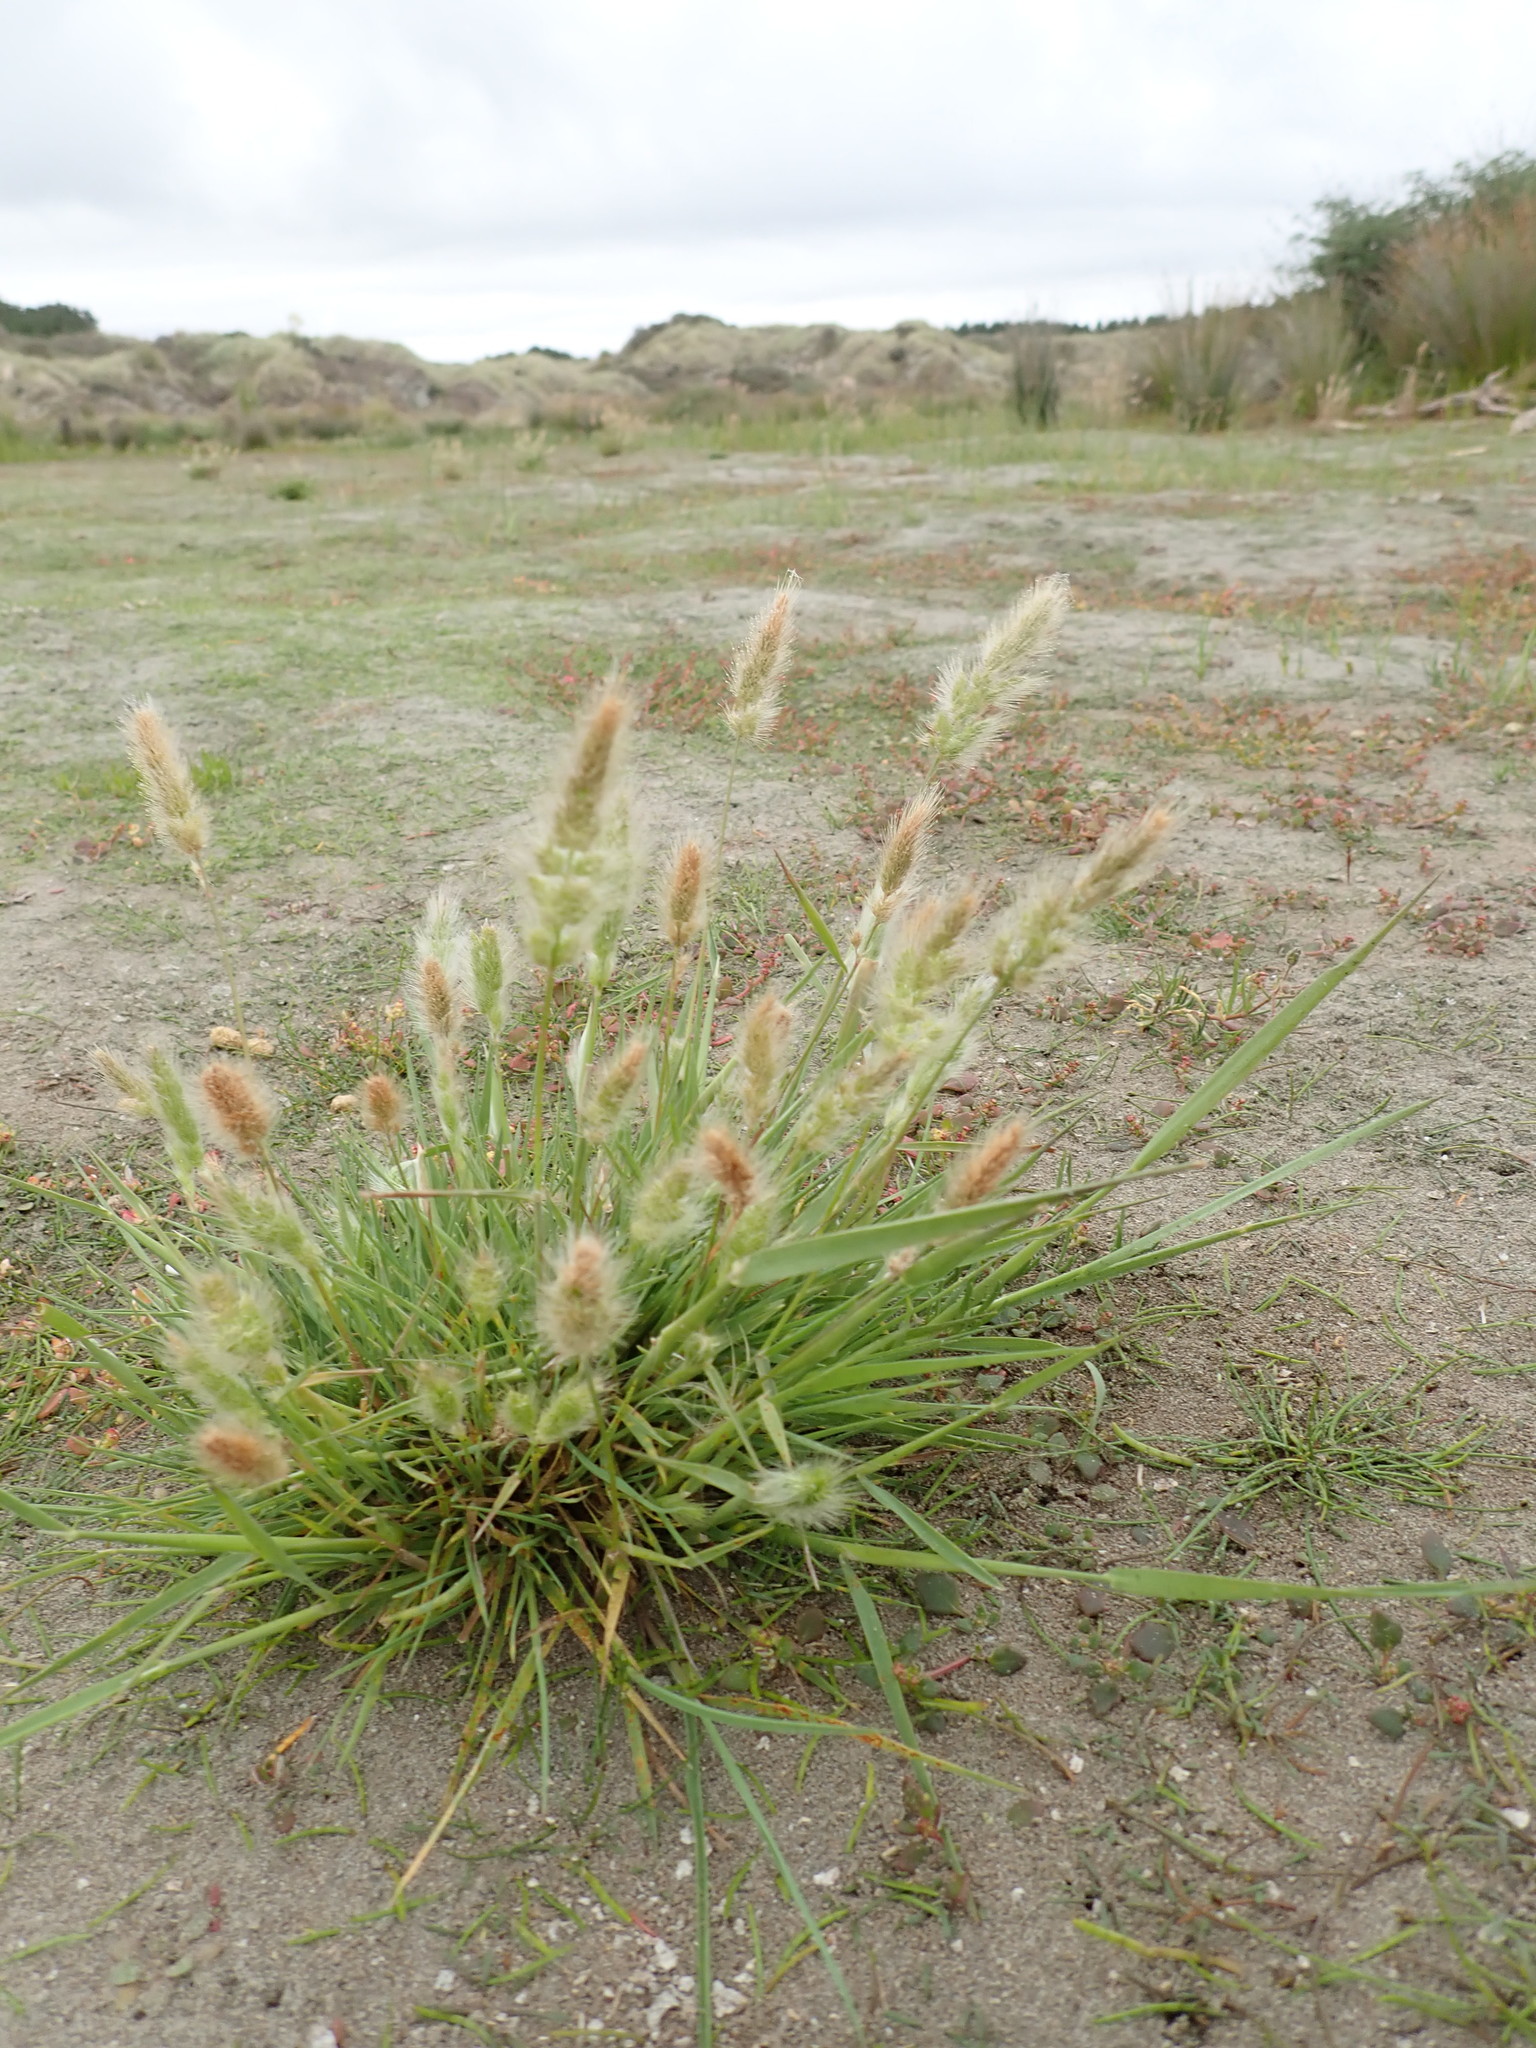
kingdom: Plantae
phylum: Tracheophyta
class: Liliopsida
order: Poales
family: Poaceae
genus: Polypogon
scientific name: Polypogon monspeliensis
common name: Annual rabbitsfoot grass
